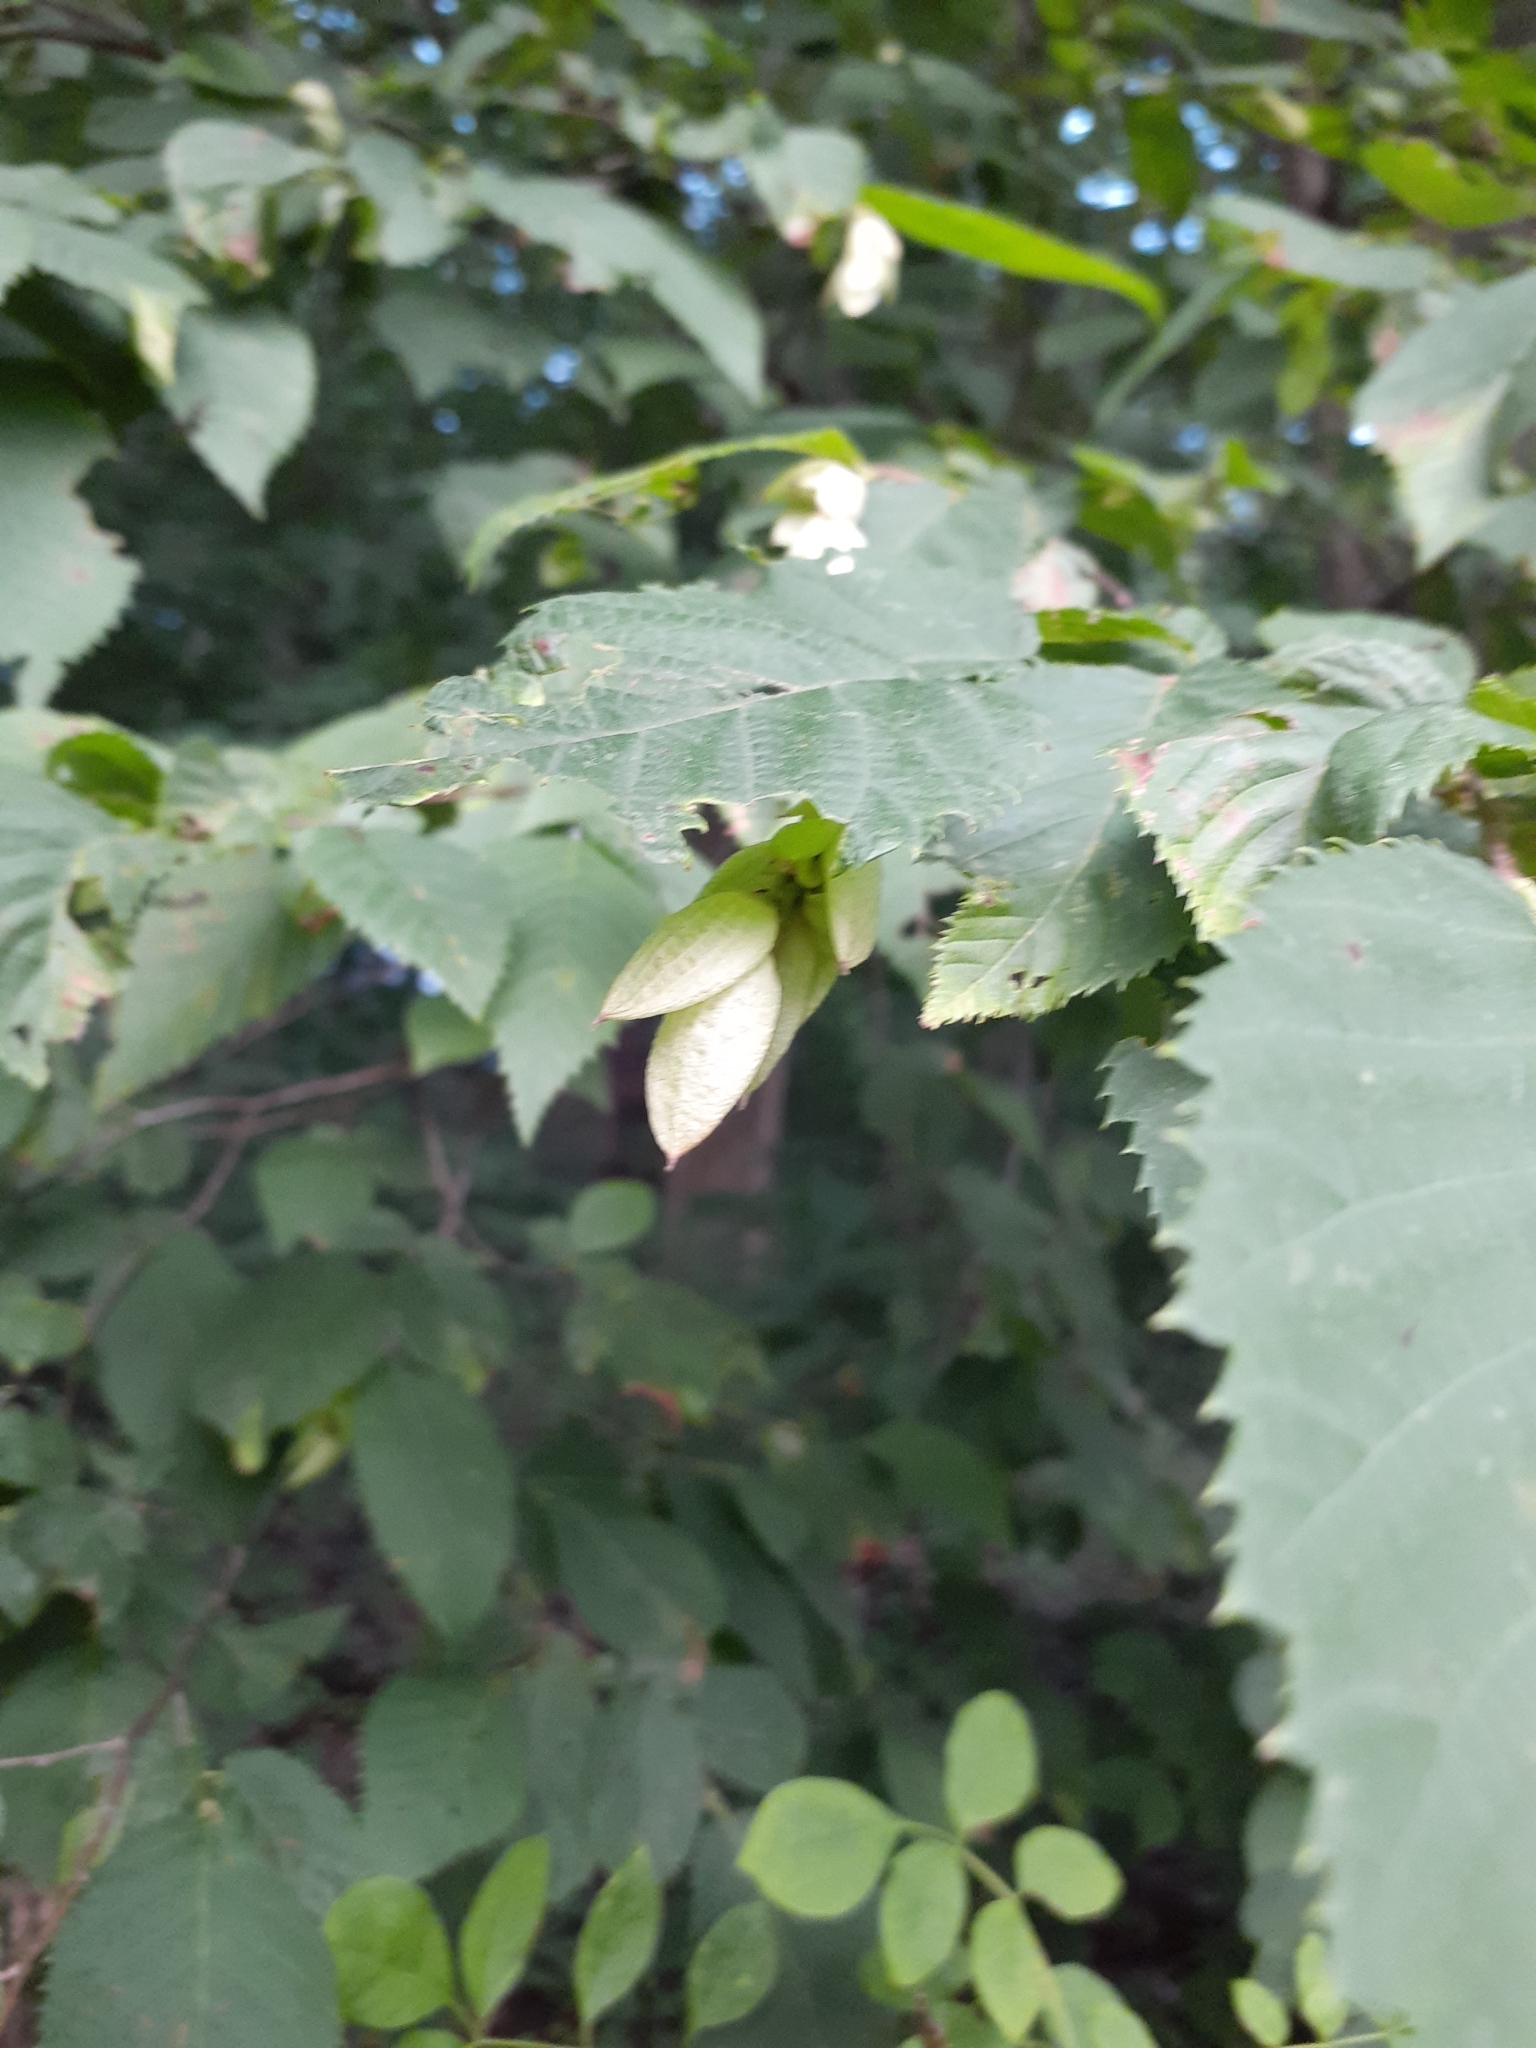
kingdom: Plantae
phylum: Tracheophyta
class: Magnoliopsida
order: Fagales
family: Betulaceae
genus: Ostrya
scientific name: Ostrya virginiana
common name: Ironwood
